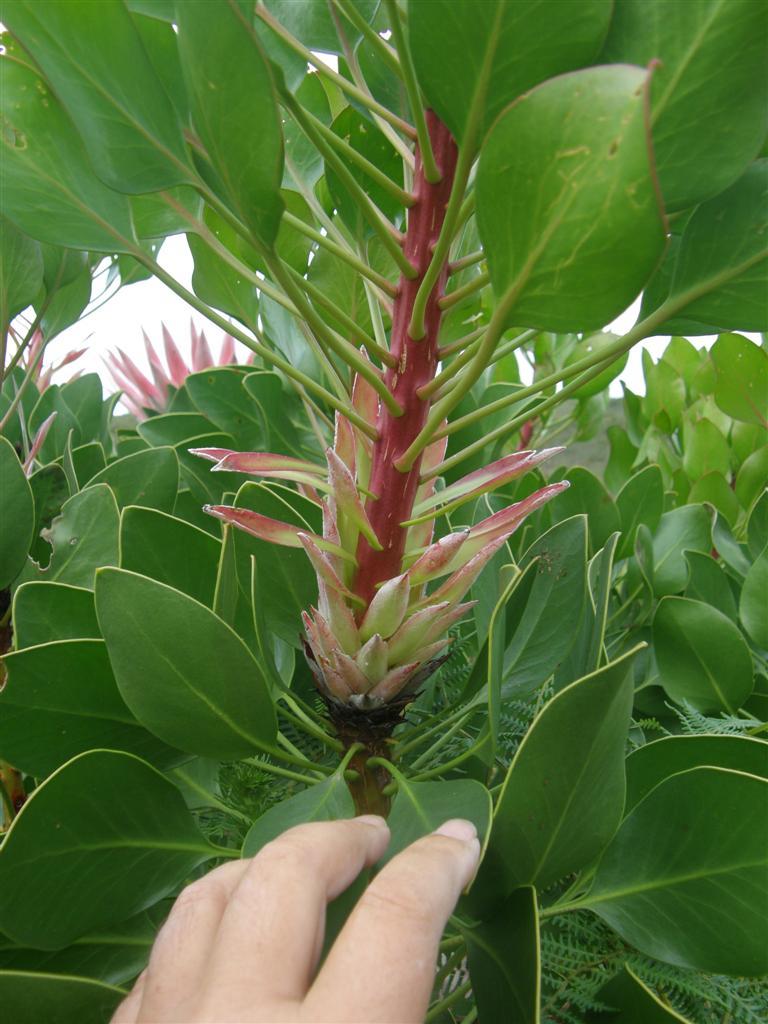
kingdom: Plantae
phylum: Tracheophyta
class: Magnoliopsida
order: Proteales
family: Proteaceae
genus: Protea
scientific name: Protea cynaroides
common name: King protea
